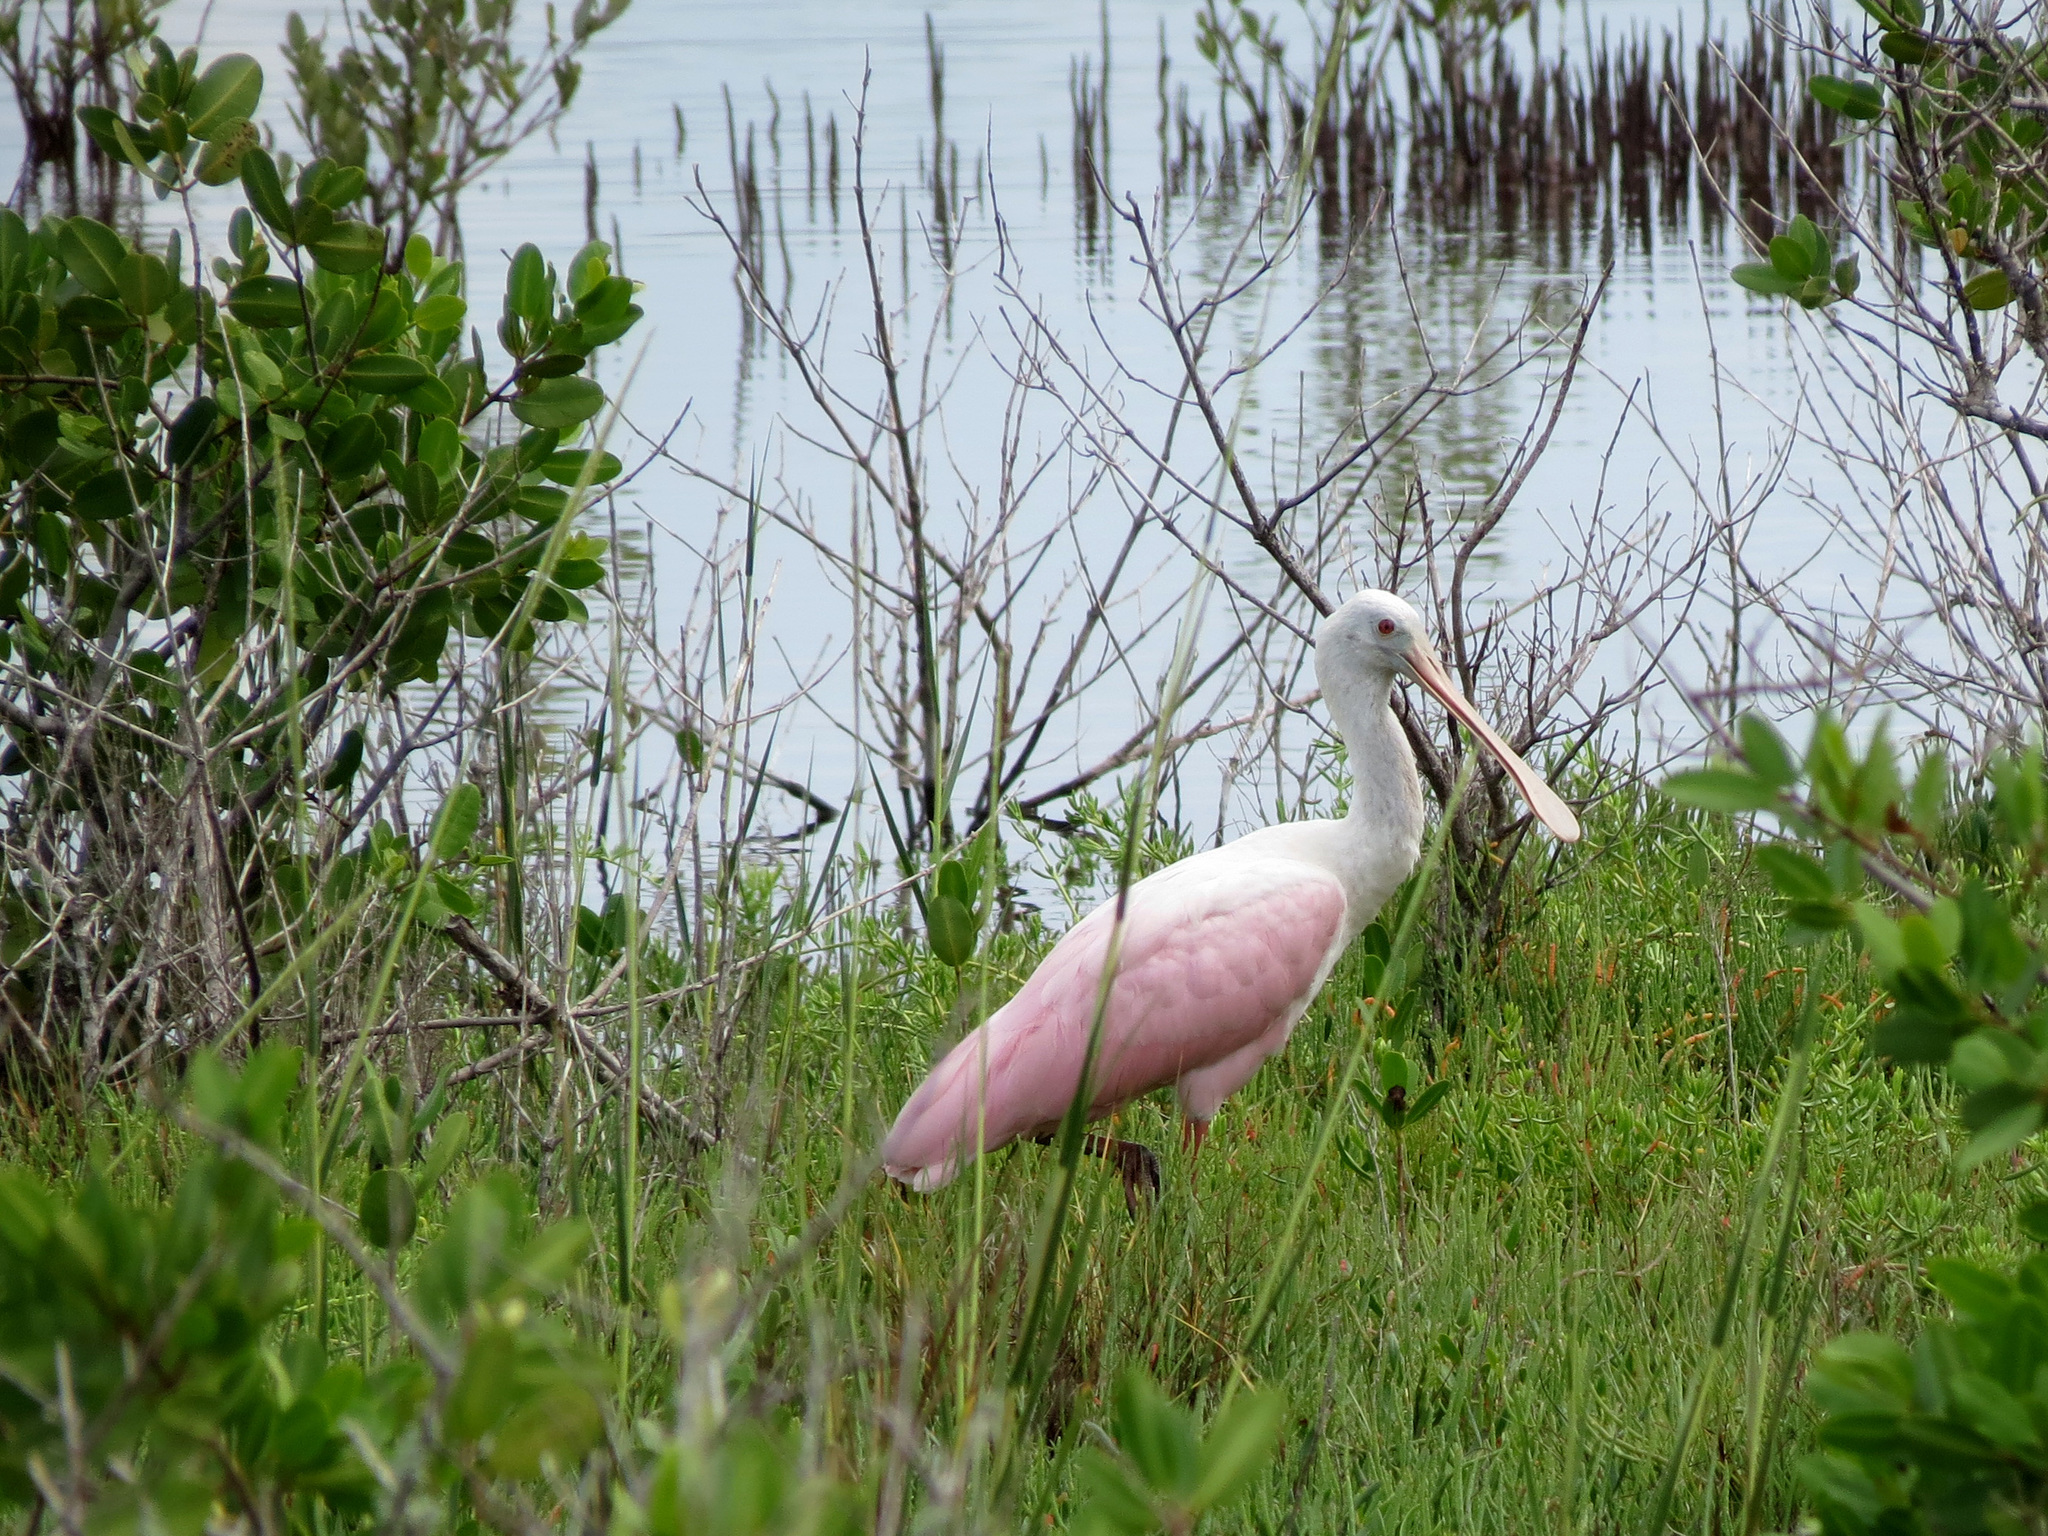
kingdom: Animalia
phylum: Chordata
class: Aves
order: Pelecaniformes
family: Threskiornithidae
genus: Platalea
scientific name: Platalea ajaja
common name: Roseate spoonbill
